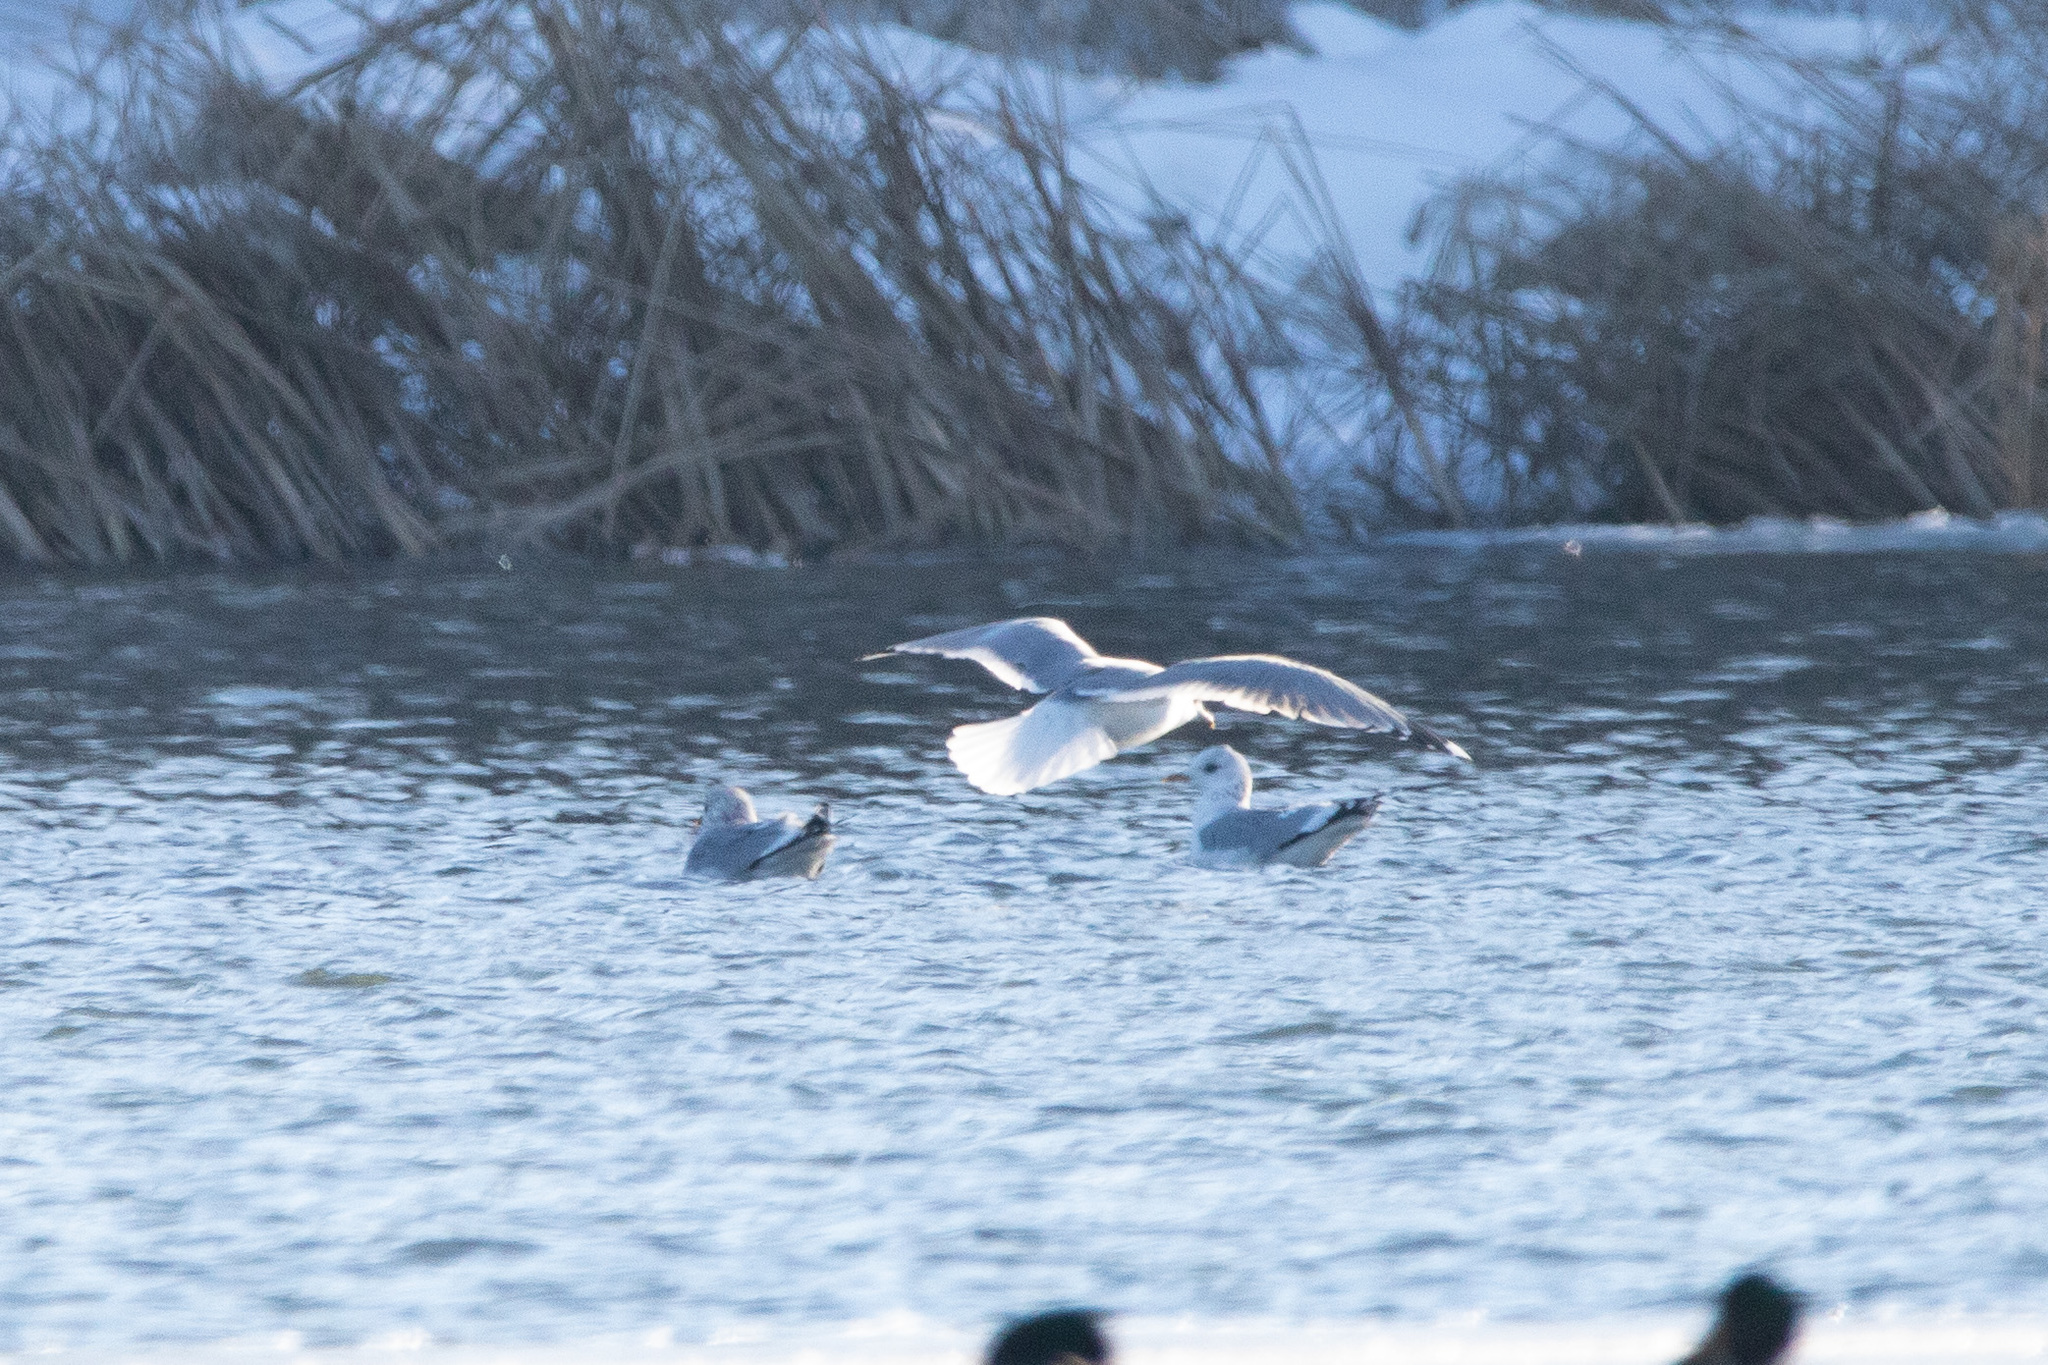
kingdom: Animalia
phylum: Chordata
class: Aves
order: Charadriiformes
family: Laridae
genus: Larus
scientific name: Larus canus
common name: Mew gull
